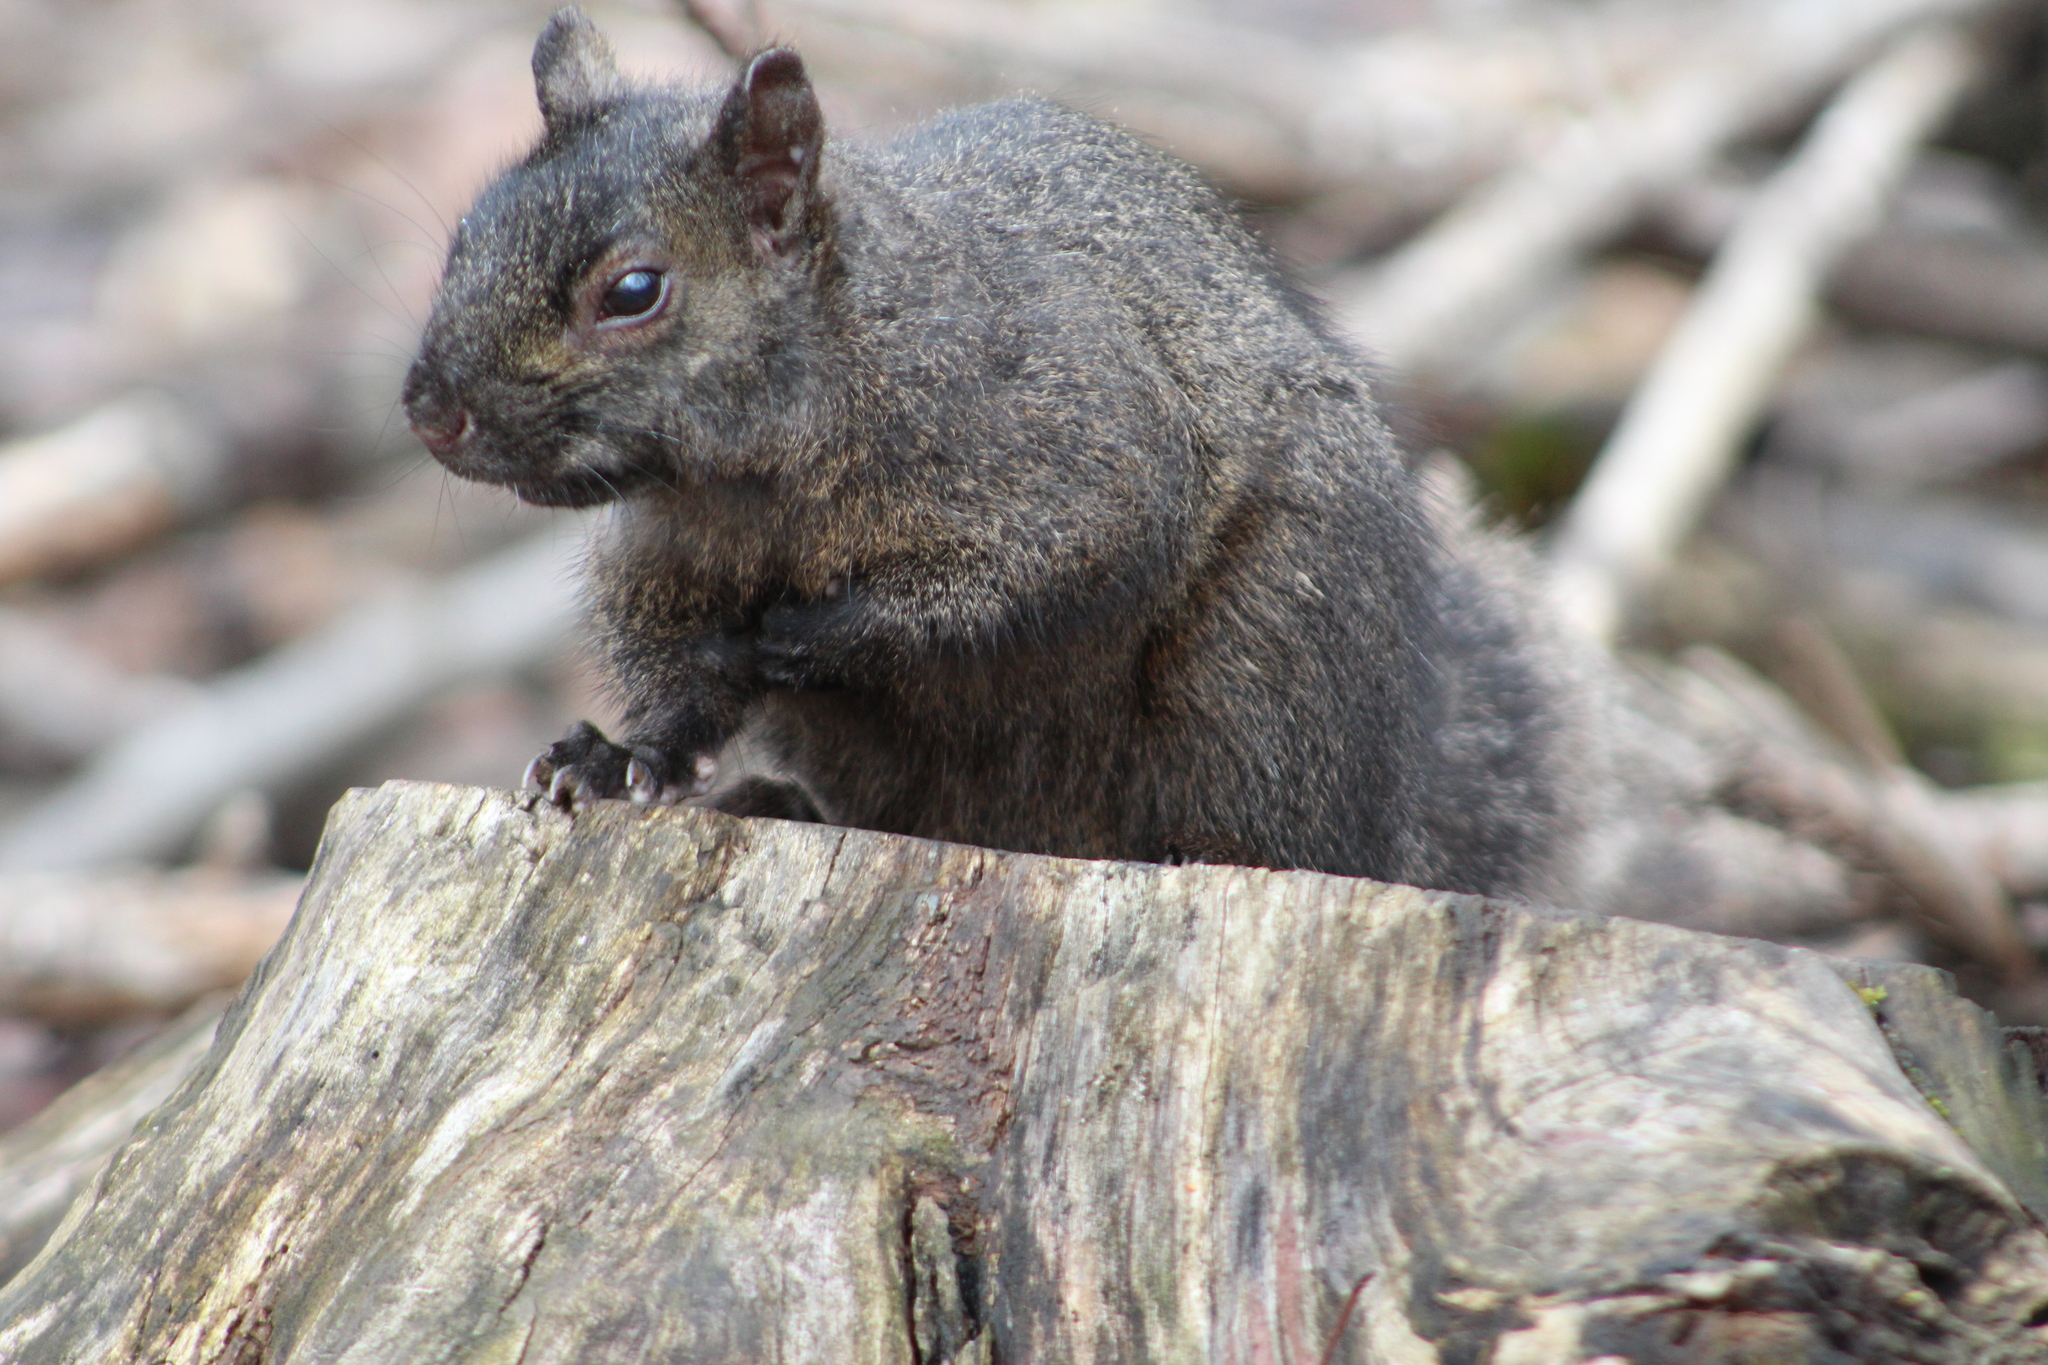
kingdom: Animalia
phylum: Chordata
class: Mammalia
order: Rodentia
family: Sciuridae
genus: Sciurus
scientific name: Sciurus carolinensis
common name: Eastern gray squirrel
